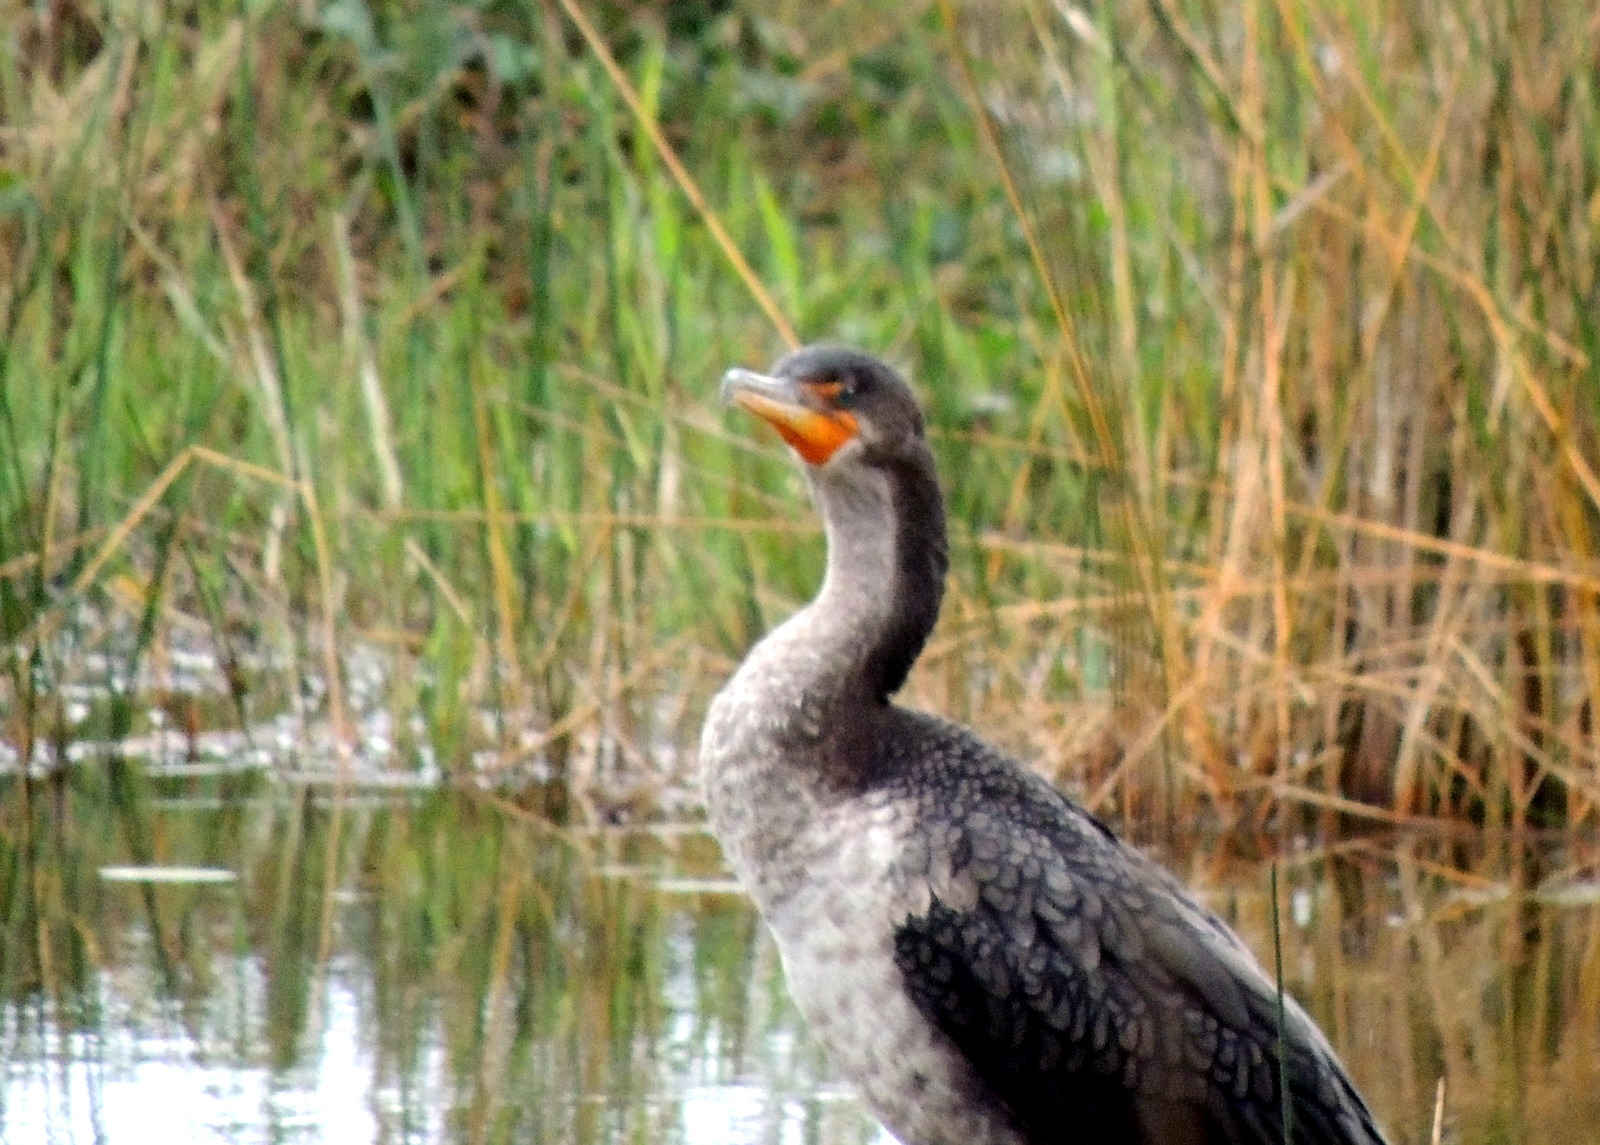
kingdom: Animalia
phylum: Chordata
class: Aves
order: Suliformes
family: Phalacrocoracidae
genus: Phalacrocorax
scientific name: Phalacrocorax auritus
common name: Double-crested cormorant
